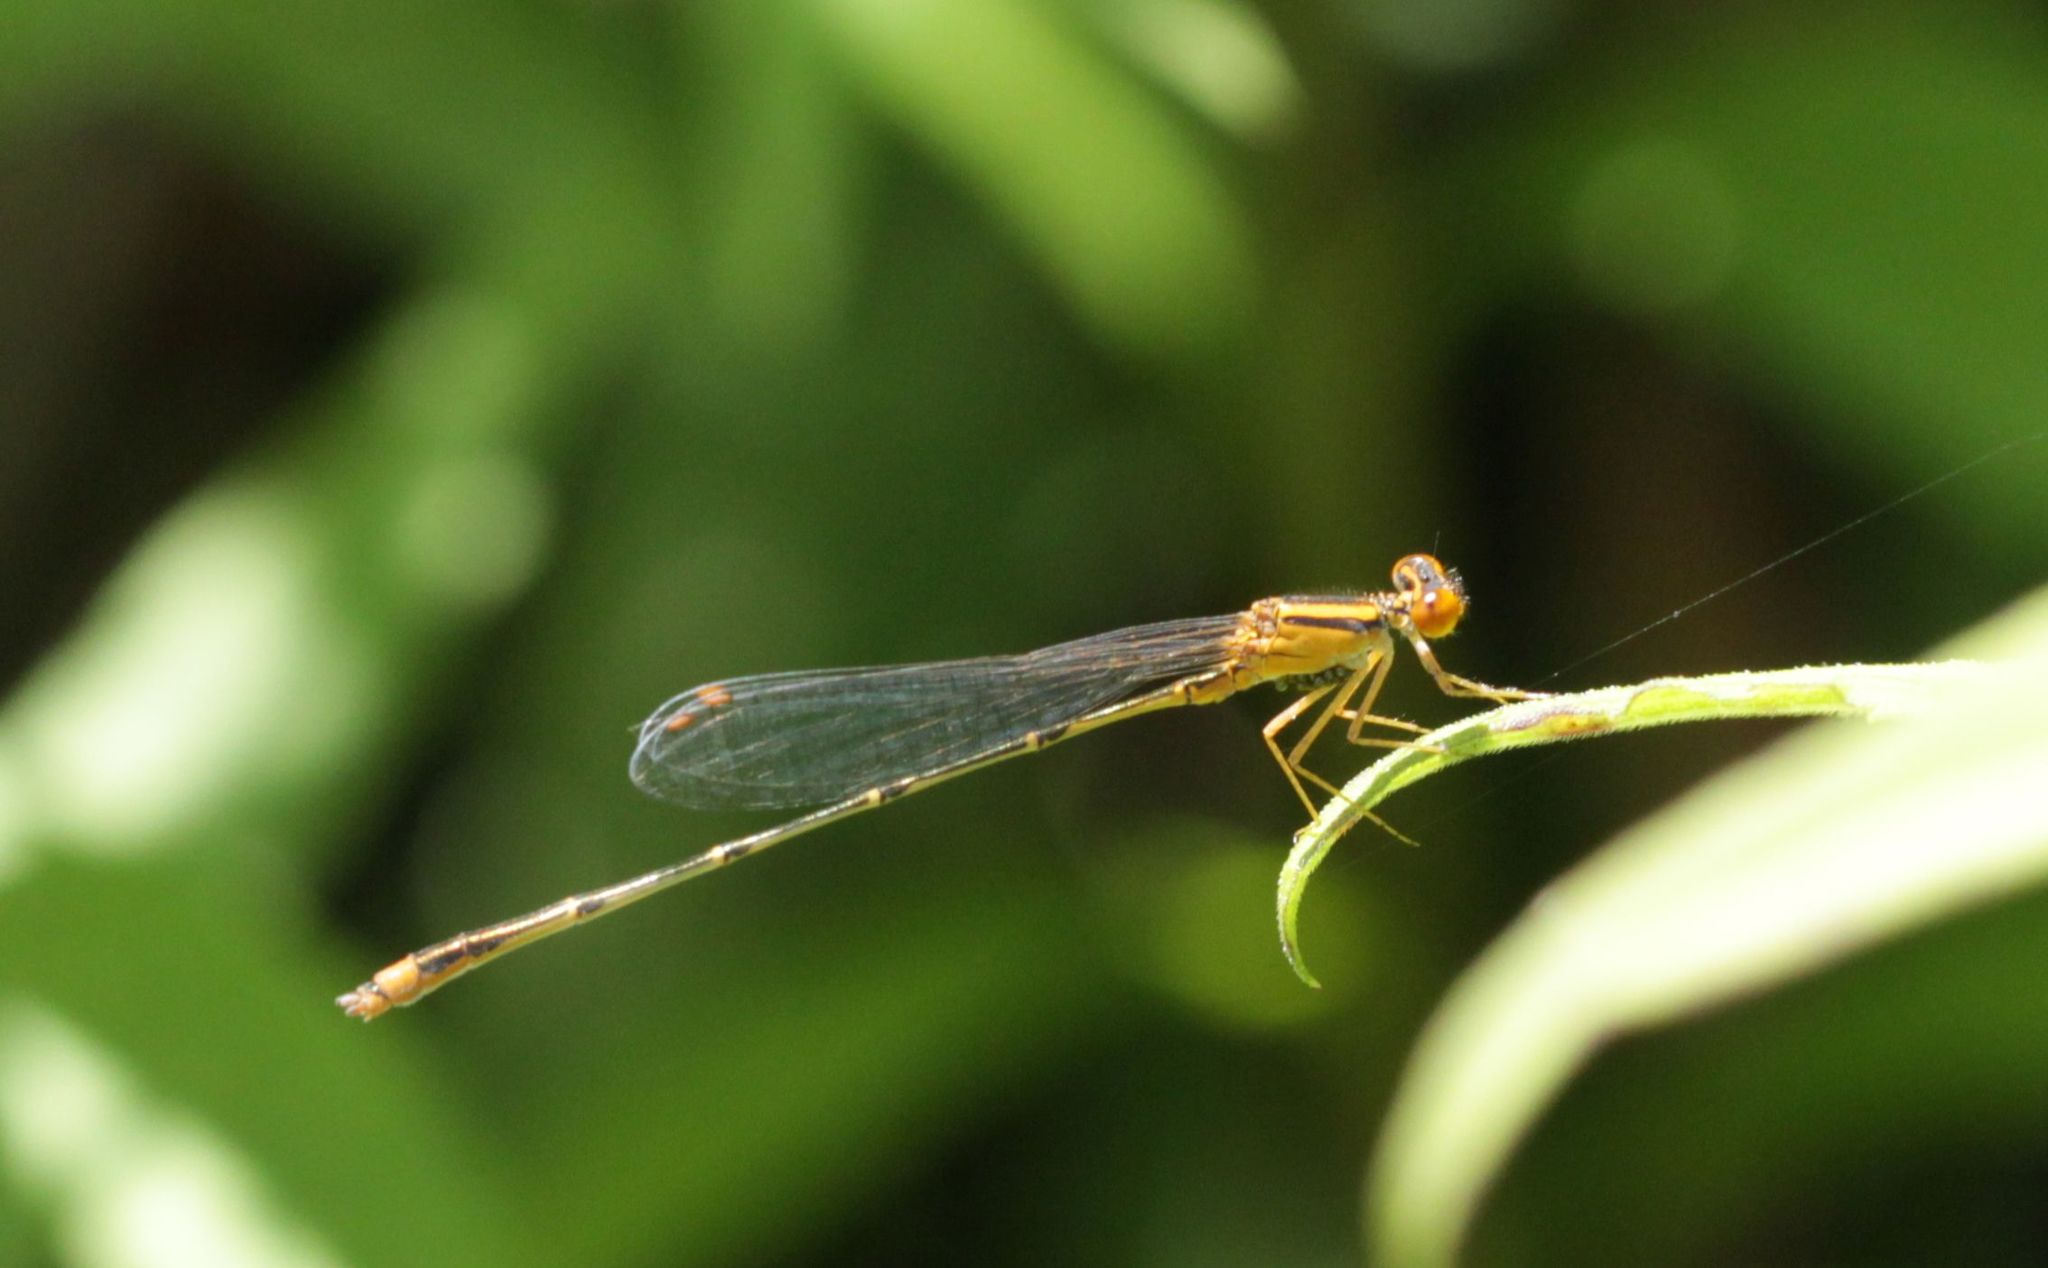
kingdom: Animalia
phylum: Arthropoda
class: Insecta
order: Odonata
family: Coenagrionidae
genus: Enallagma
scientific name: Enallagma signatum
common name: Orange bluet
